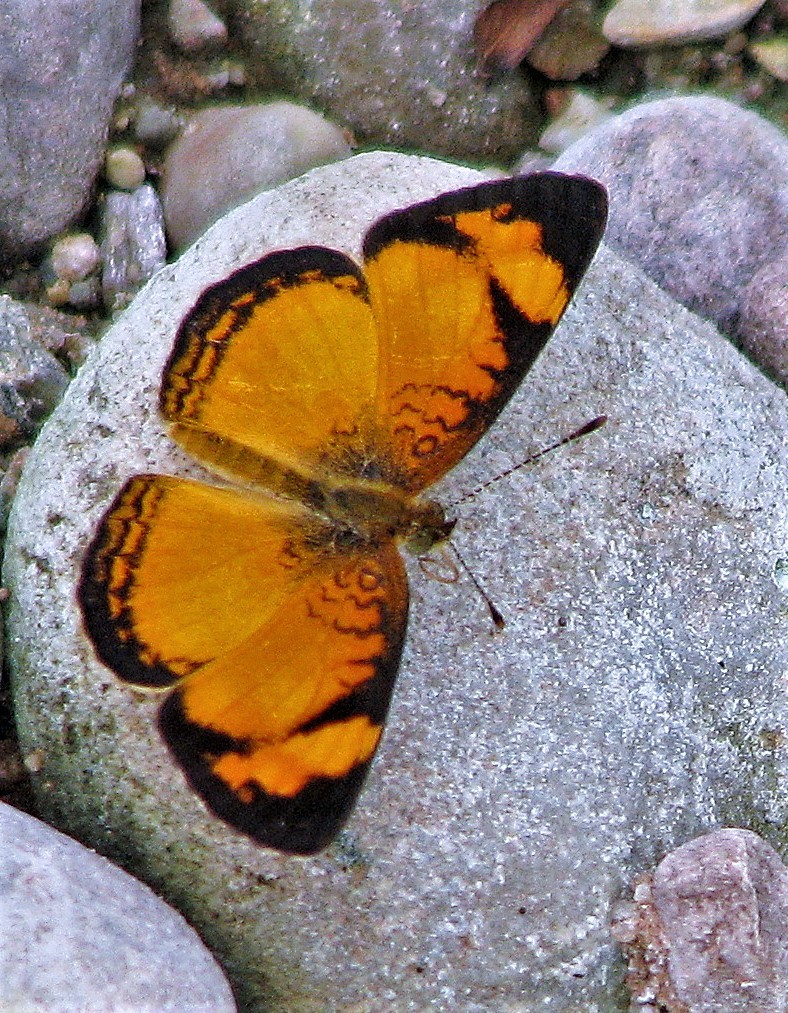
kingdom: Animalia
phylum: Arthropoda
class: Insecta
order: Lepidoptera
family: Nymphalidae
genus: Ortilia
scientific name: Ortilia gentina
